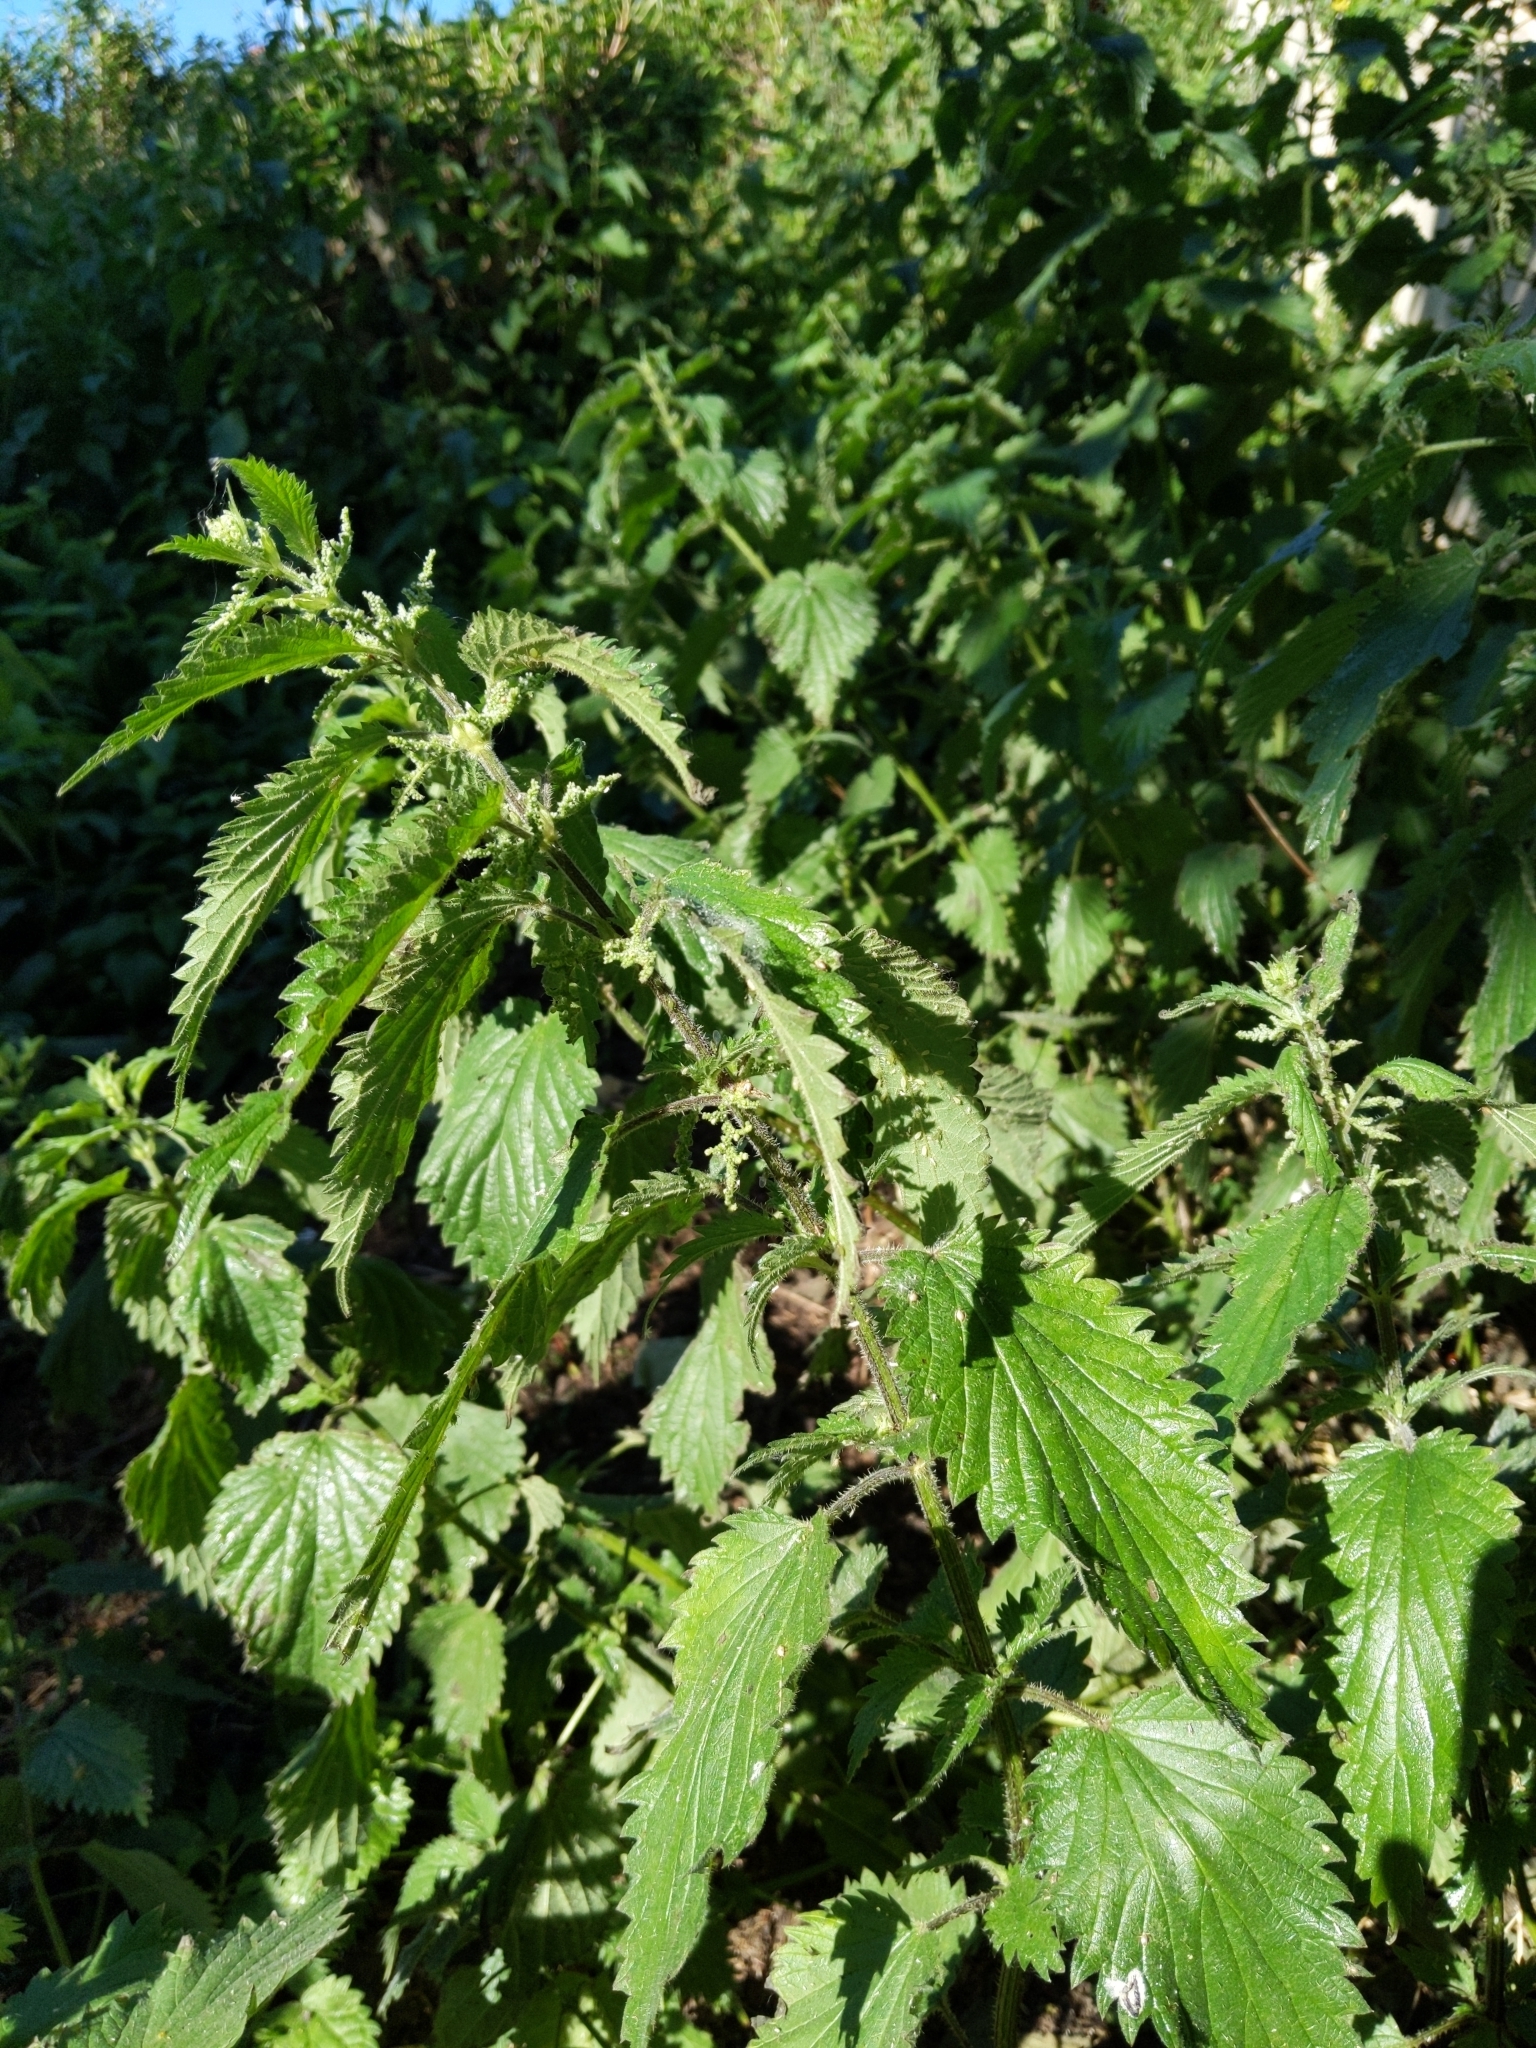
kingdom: Plantae
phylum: Tracheophyta
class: Magnoliopsida
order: Rosales
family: Urticaceae
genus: Urtica
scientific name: Urtica dioica
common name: Common nettle
